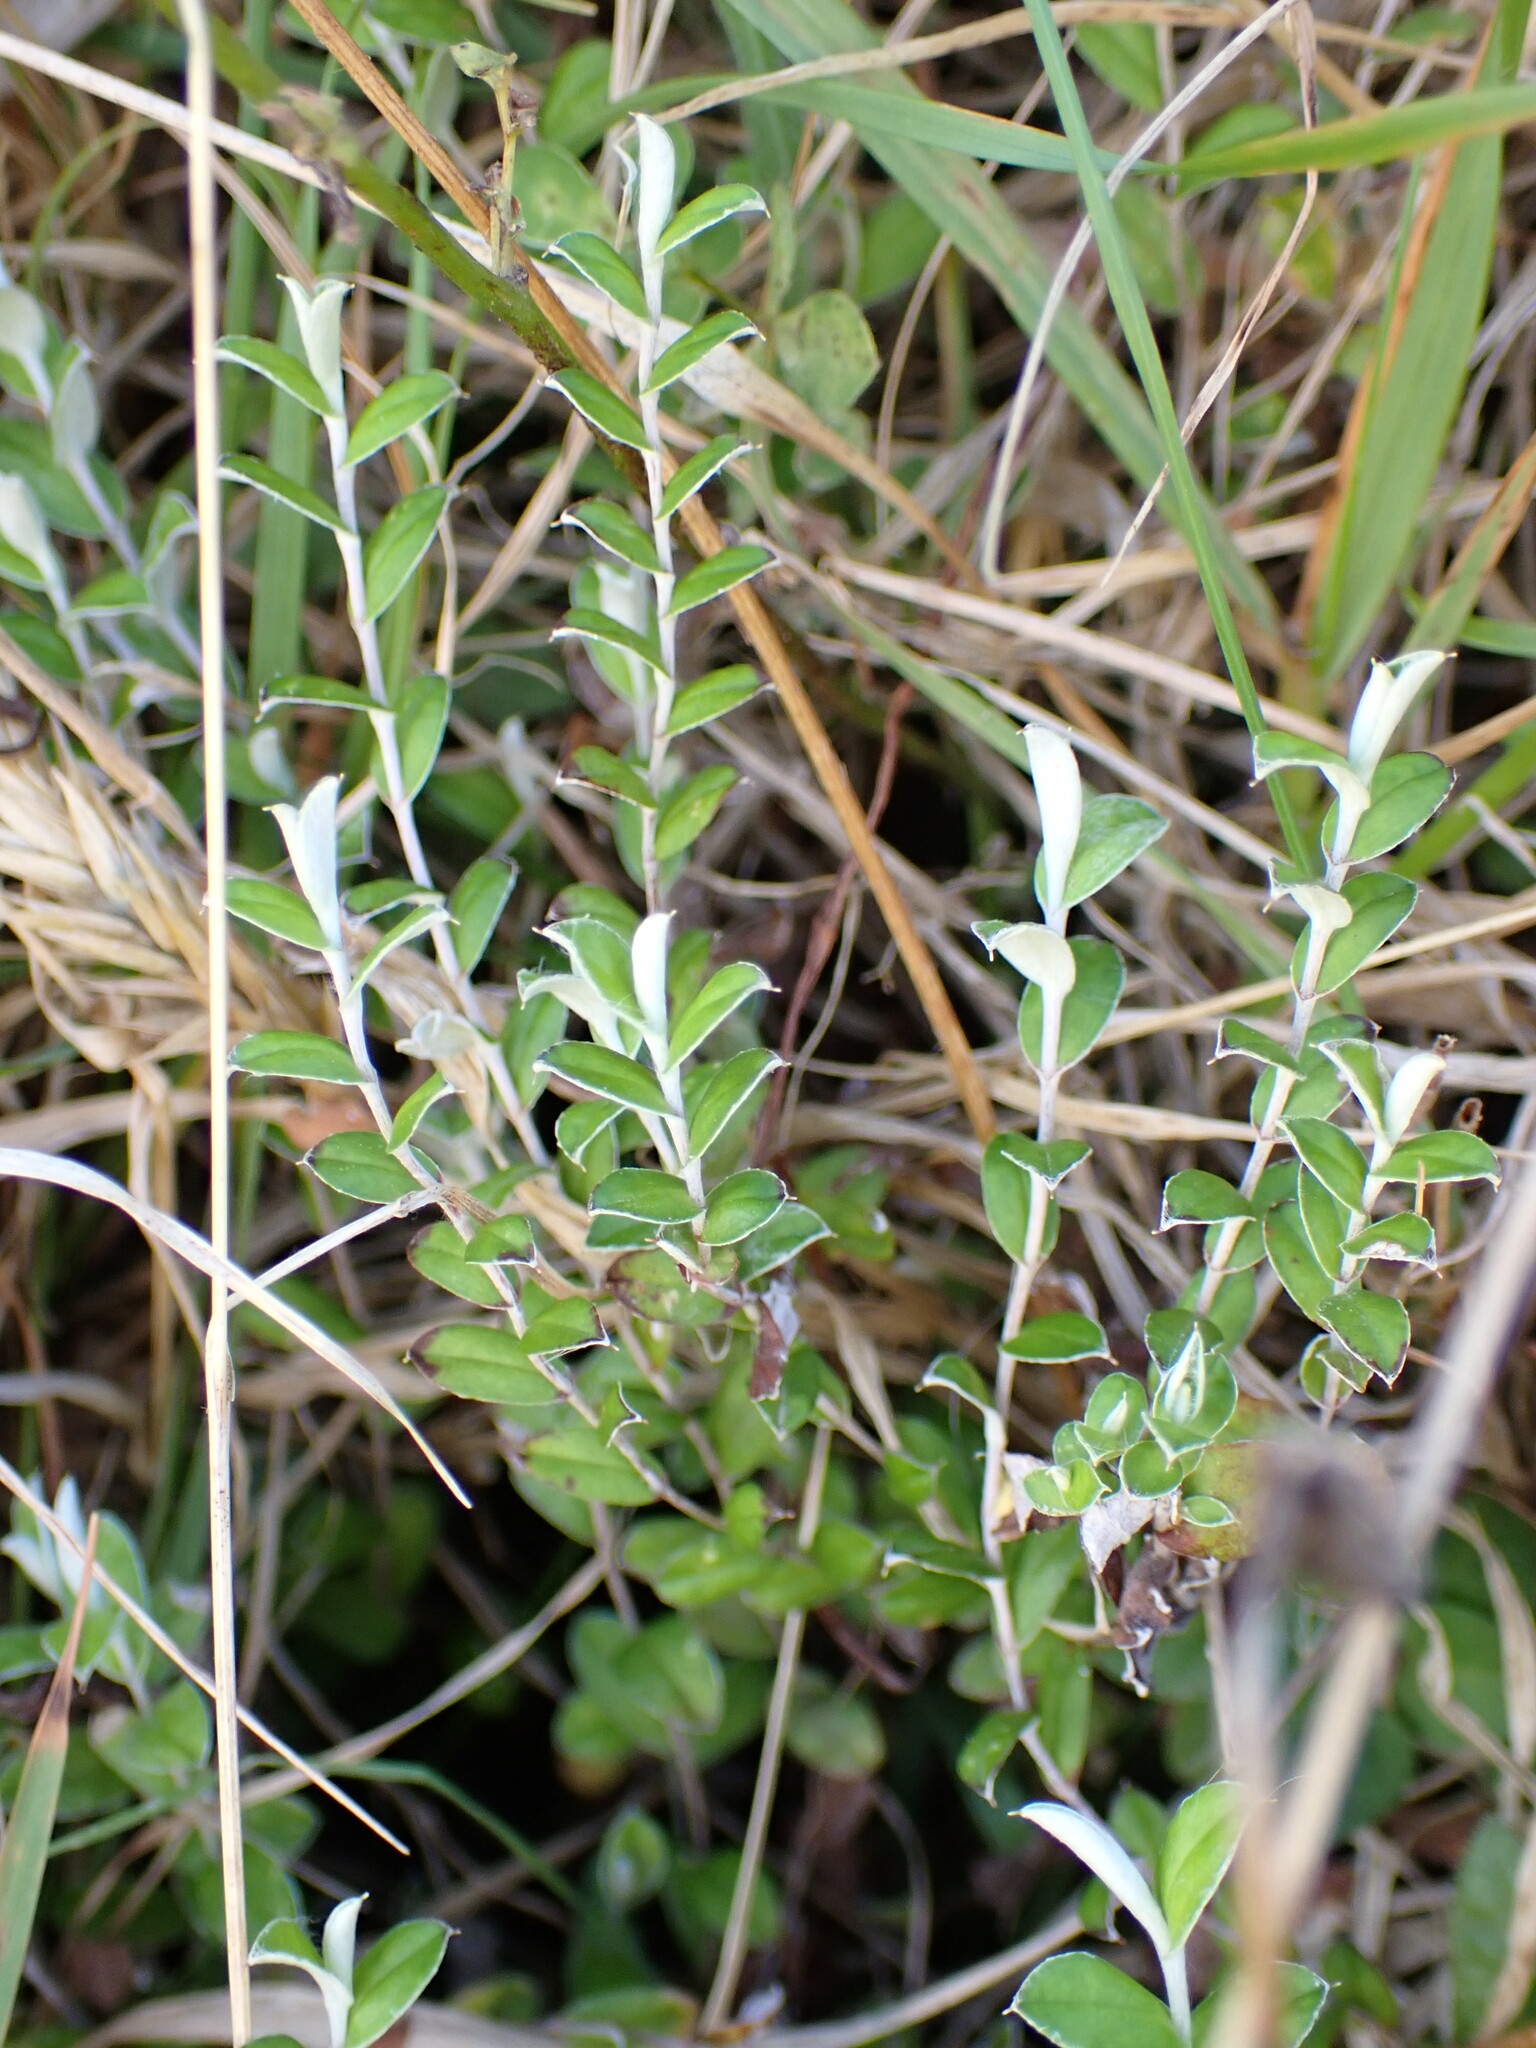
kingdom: Plantae
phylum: Tracheophyta
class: Magnoliopsida
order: Asterales
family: Asteraceae
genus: Helichrysum
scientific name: Helichrysum filicaule
